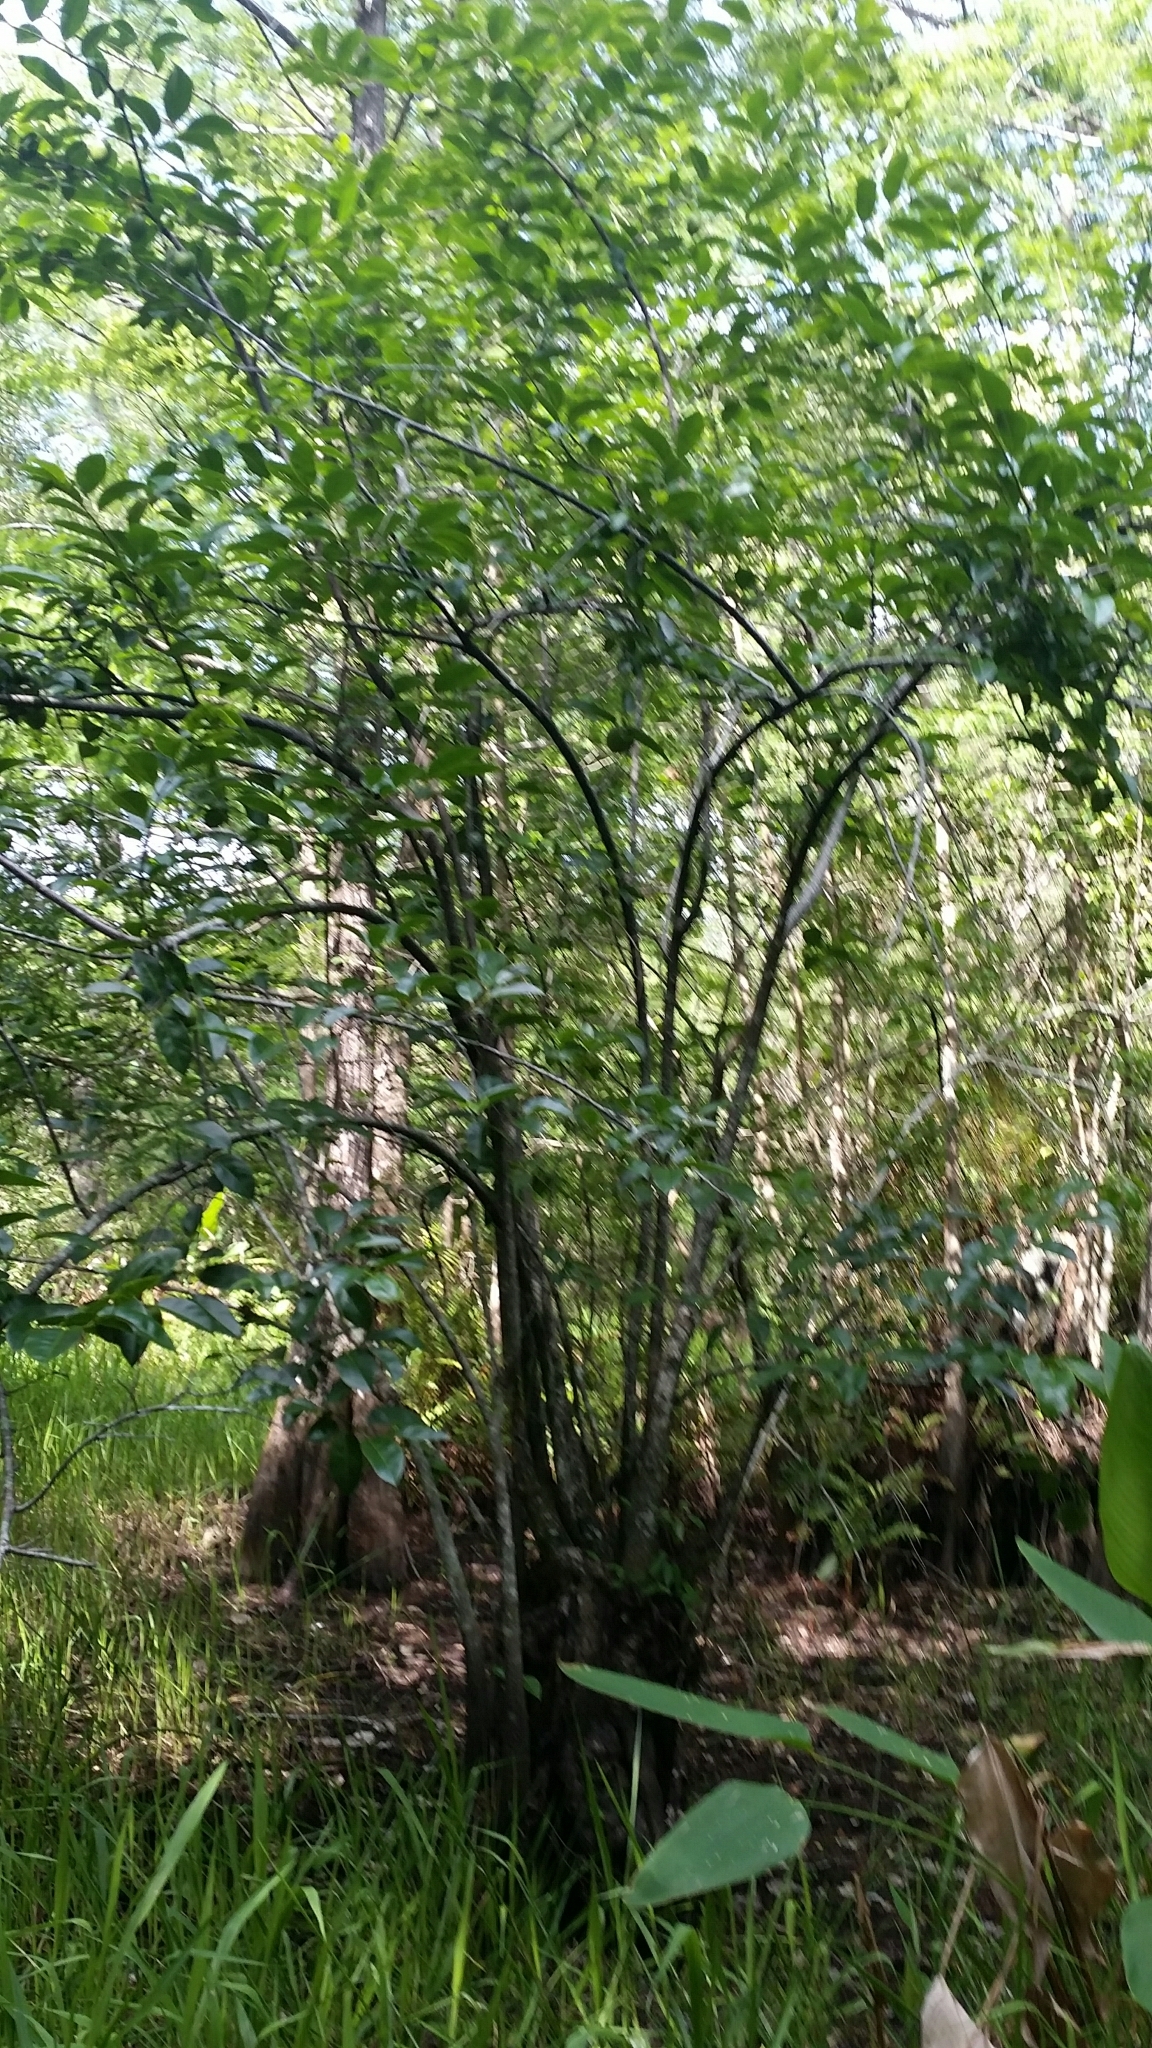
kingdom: Plantae
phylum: Tracheophyta
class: Magnoliopsida
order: Magnoliales
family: Annonaceae
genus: Annona
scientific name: Annona glabra
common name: Monkey apple
